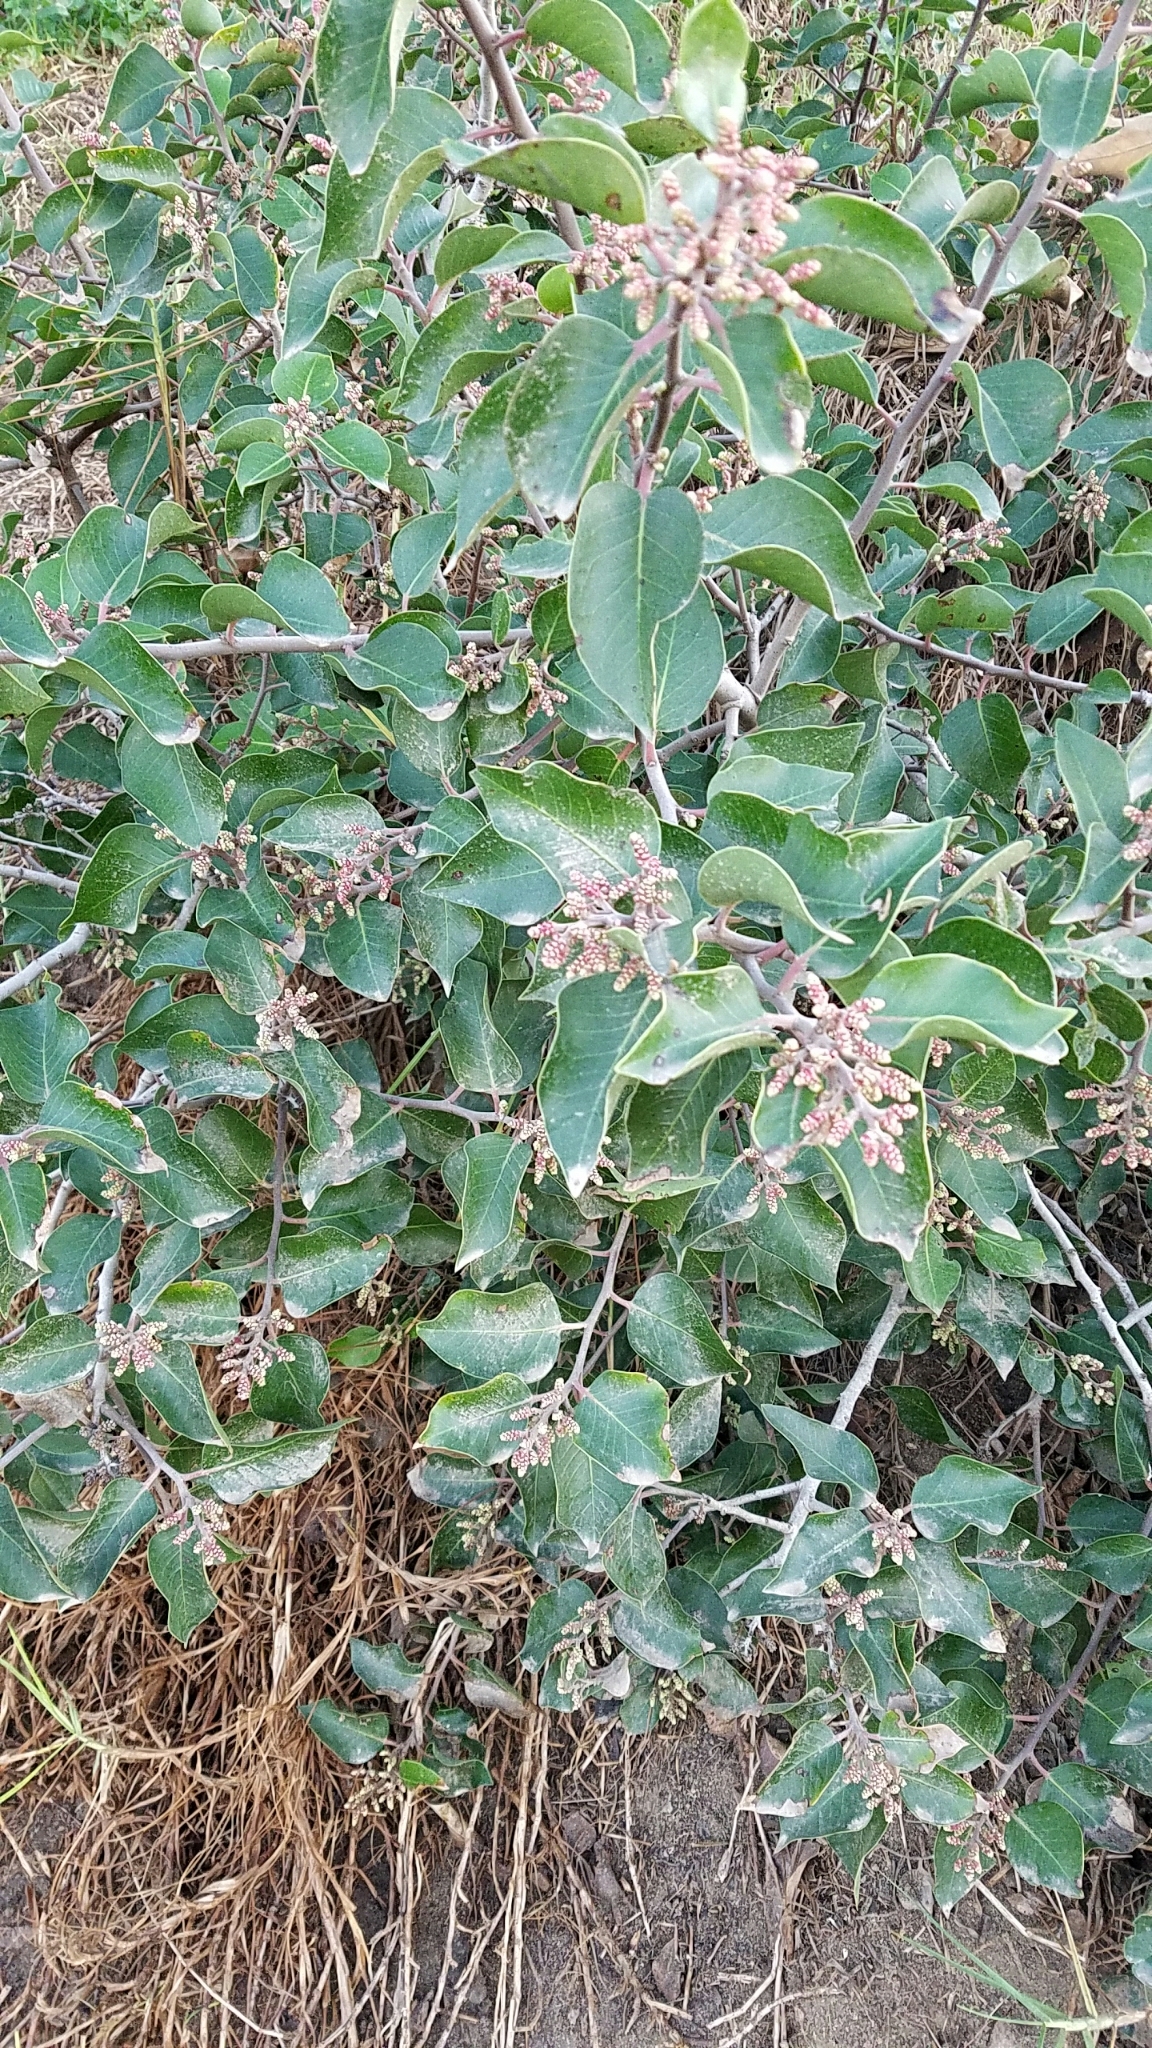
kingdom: Plantae
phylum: Tracheophyta
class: Magnoliopsida
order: Sapindales
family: Anacardiaceae
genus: Rhus
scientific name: Rhus ovata
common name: Sugar sumac
